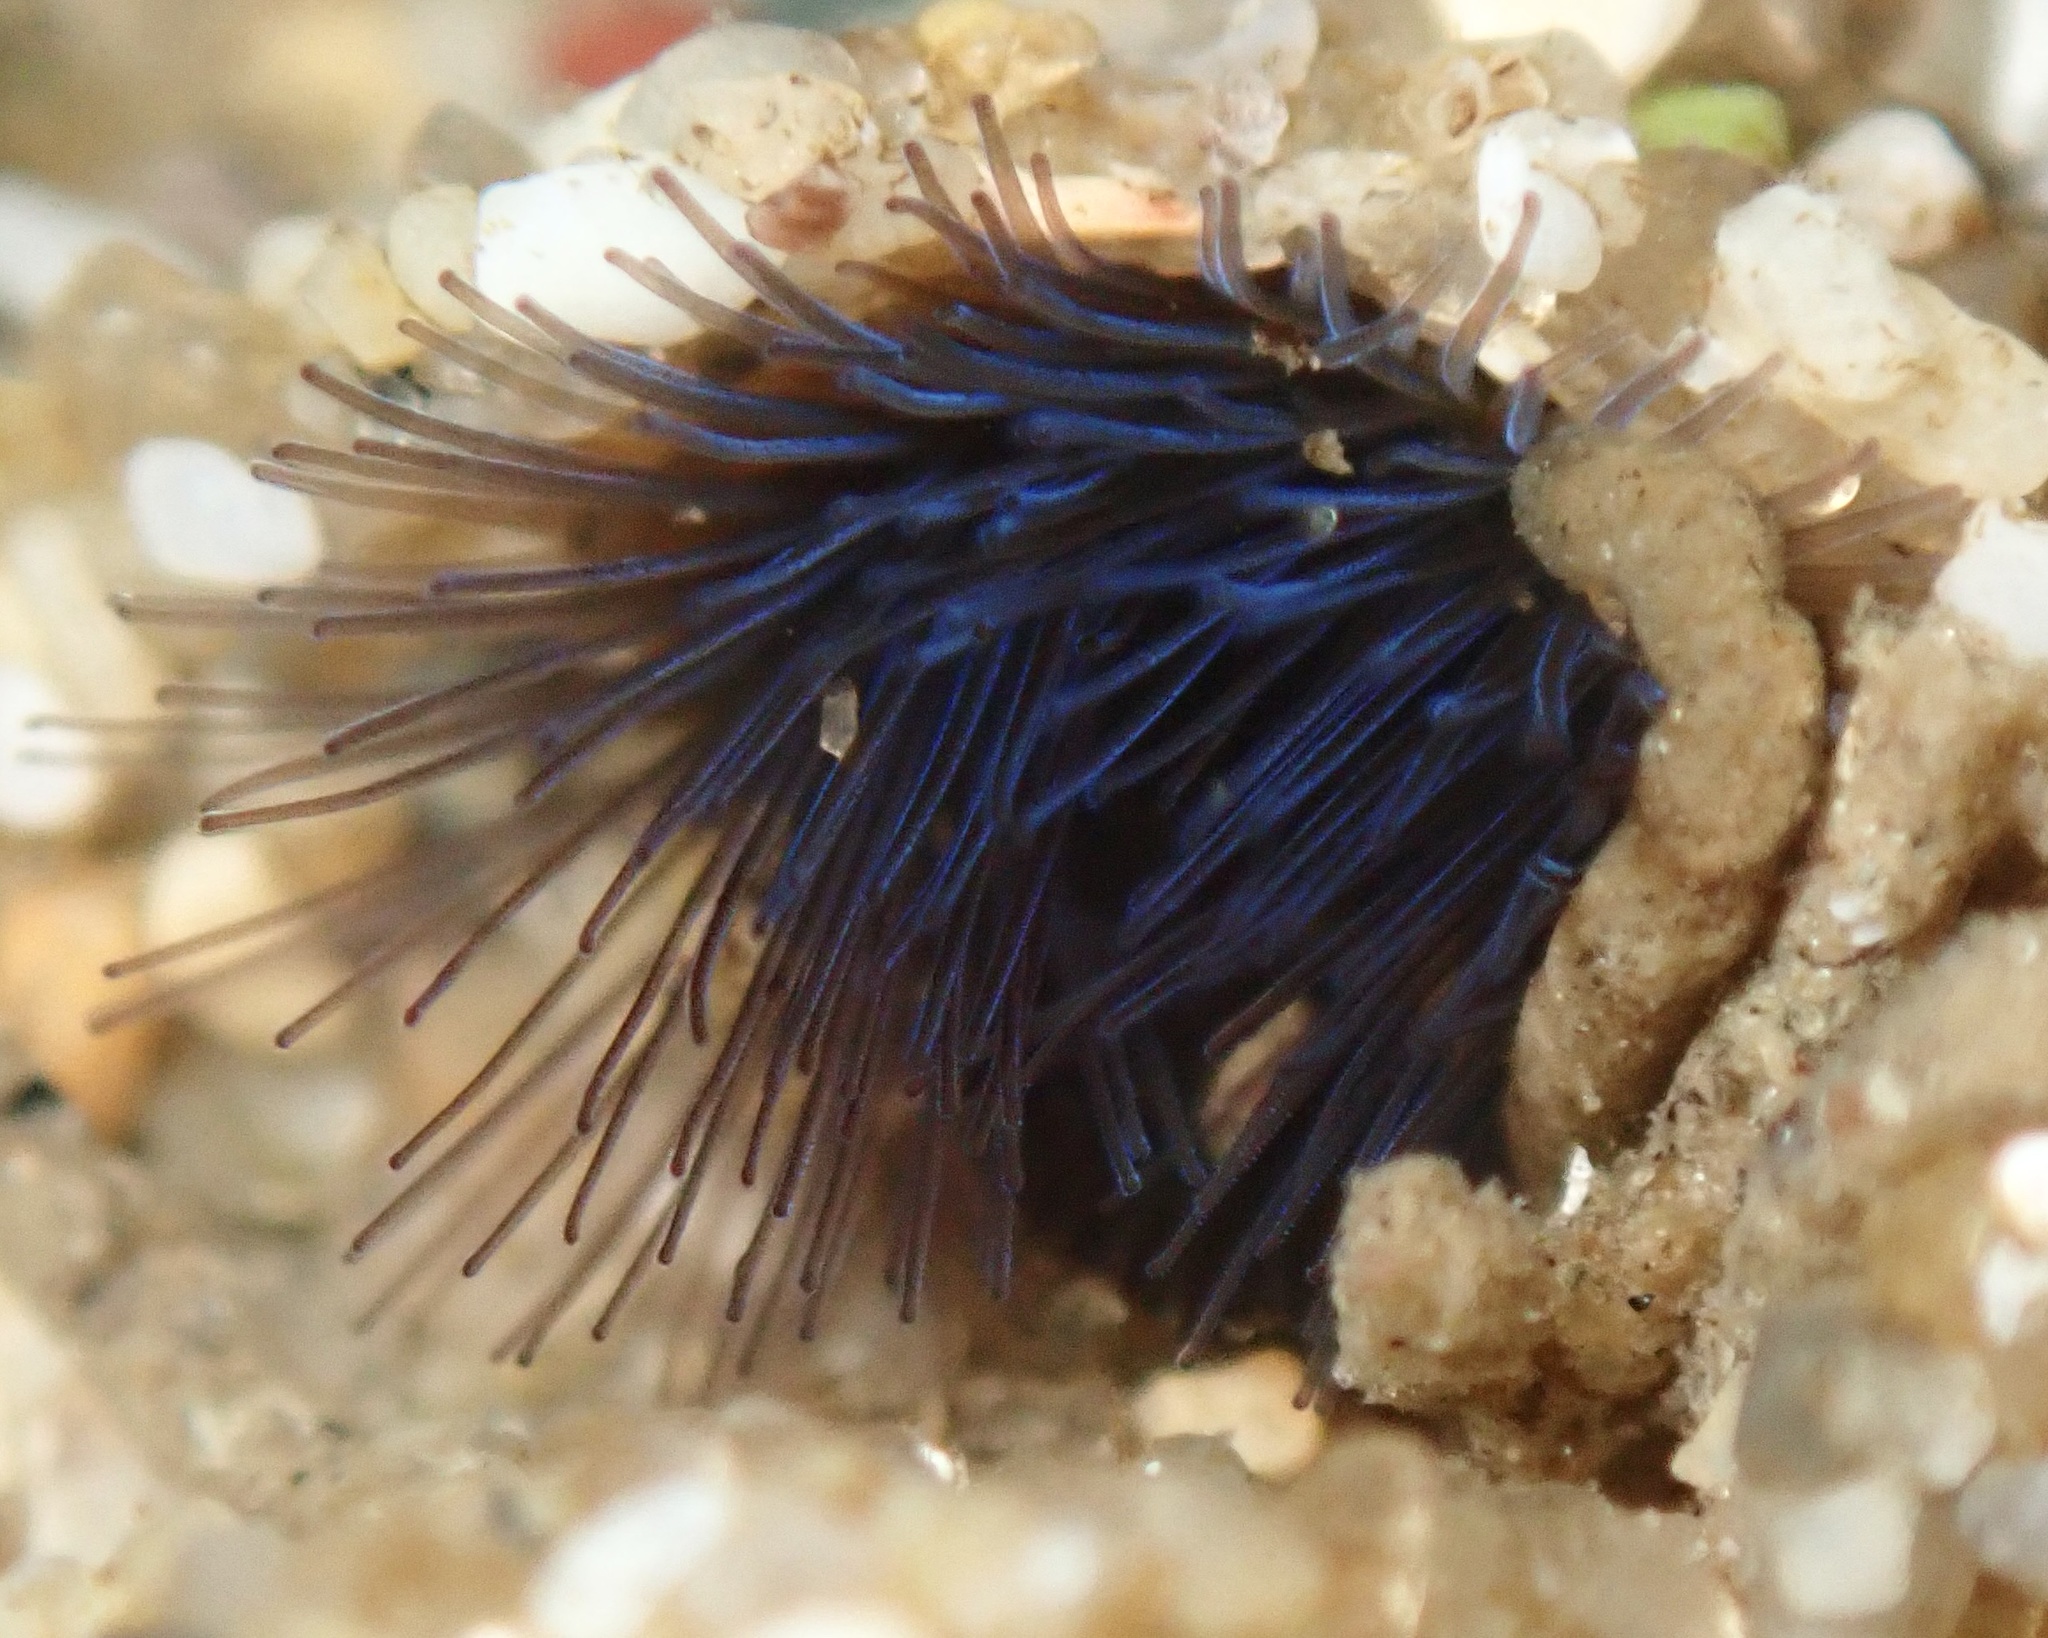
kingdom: Animalia
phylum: Annelida
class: Polychaeta
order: Sabellida
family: Sabellariidae
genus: Phragmatopoma
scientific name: Phragmatopoma californica
